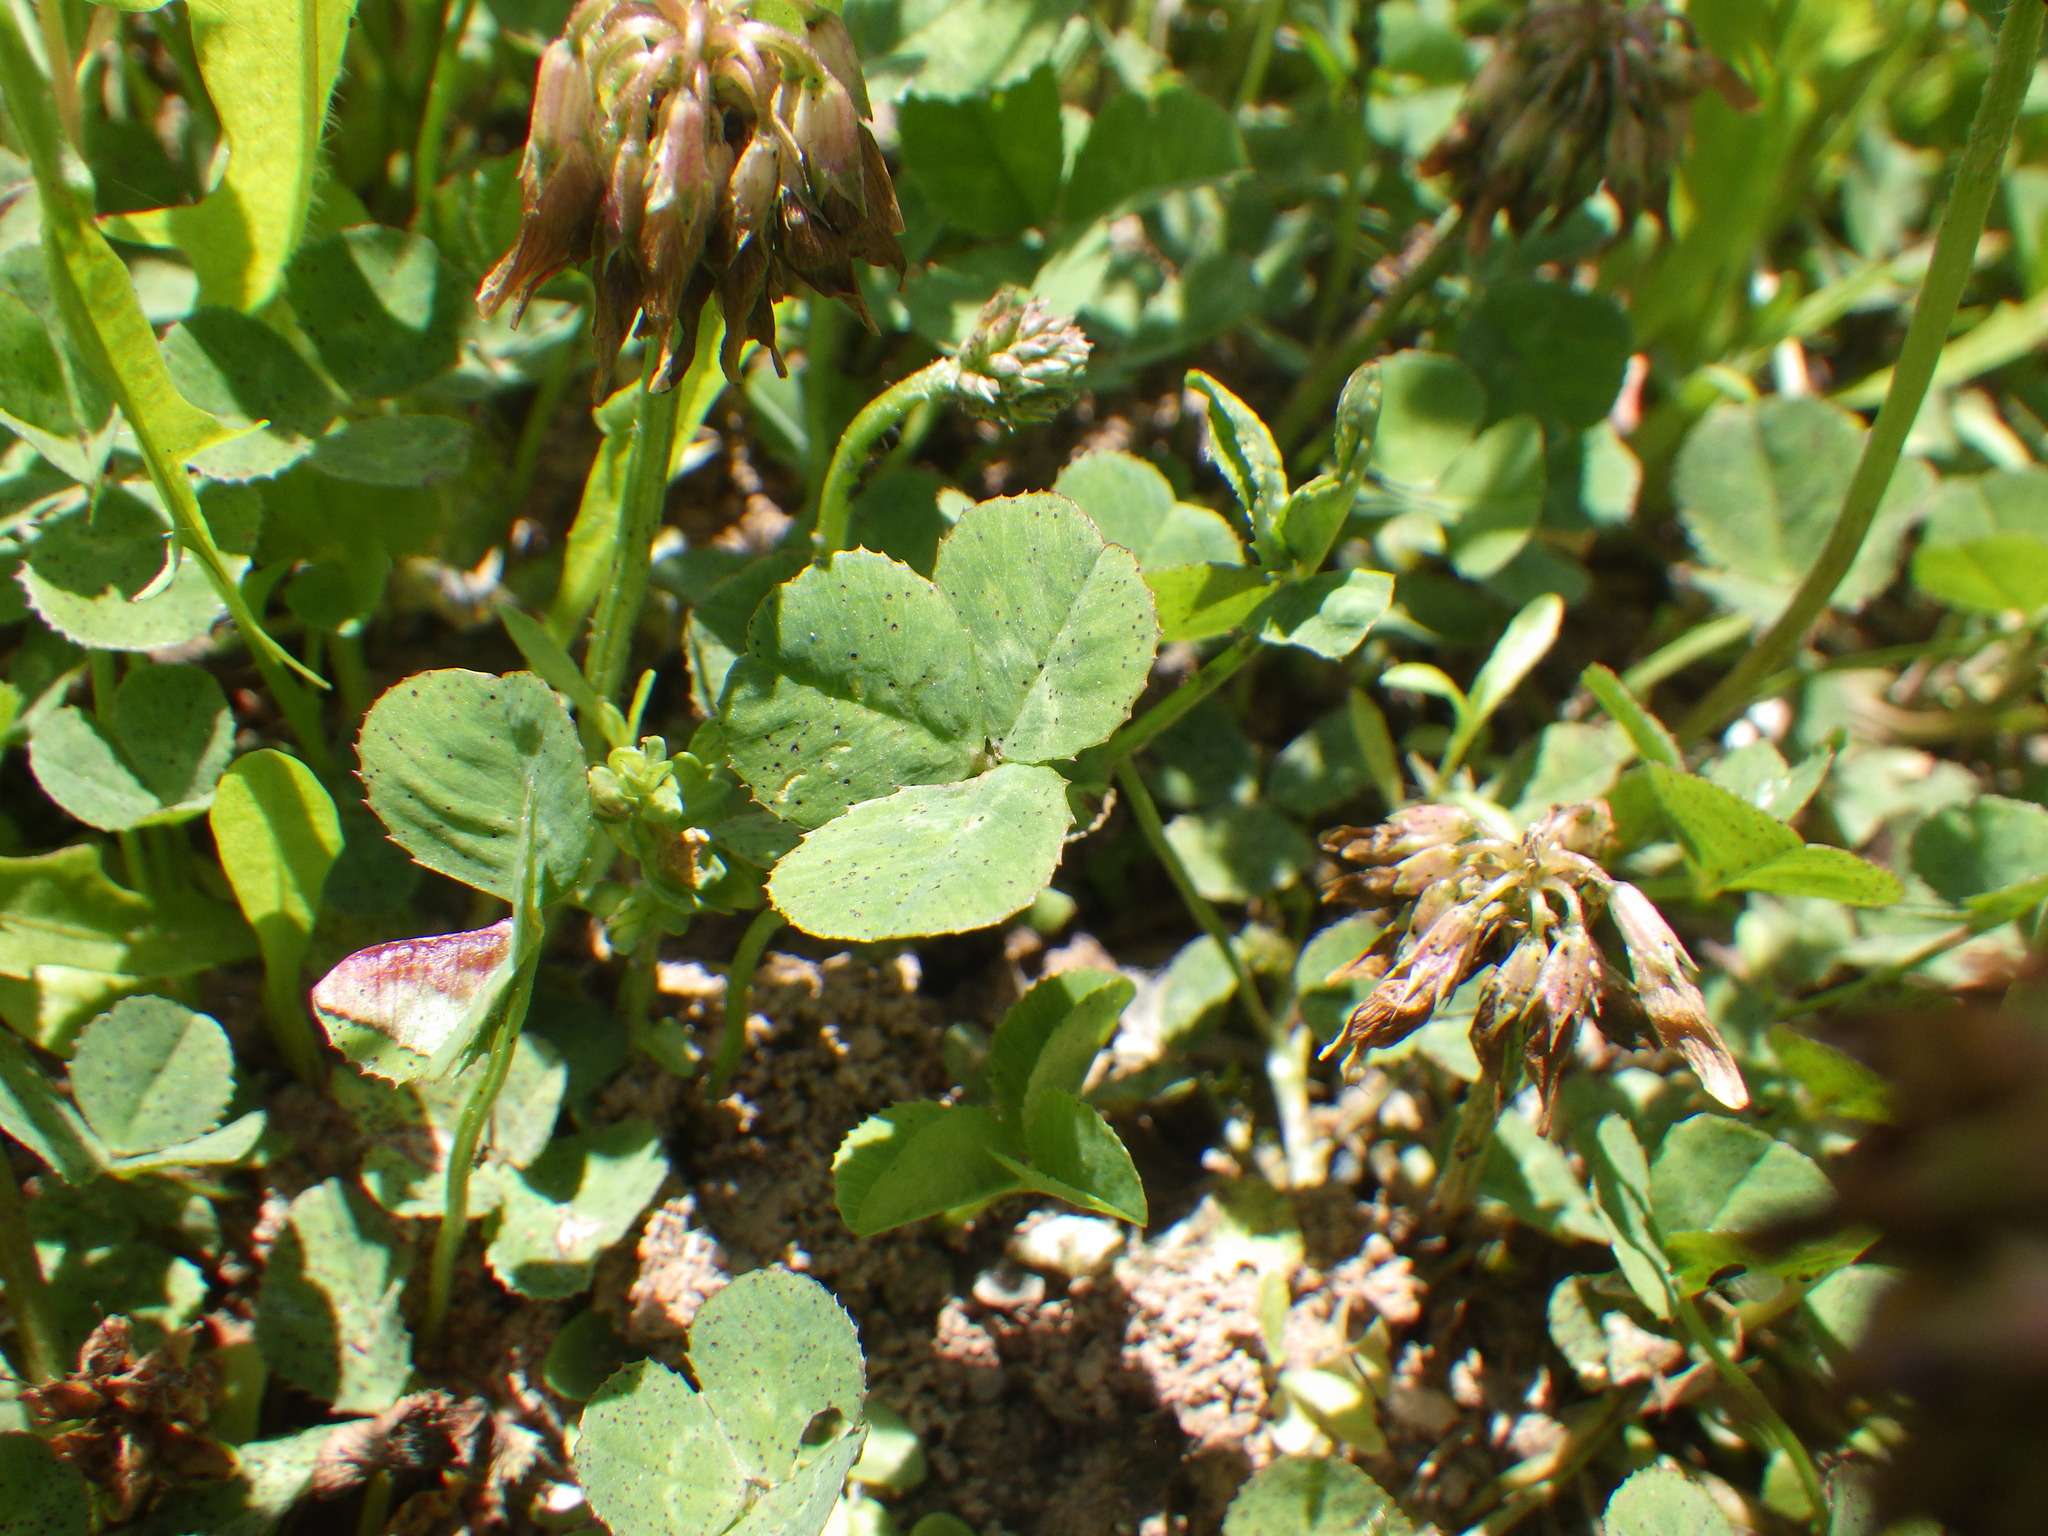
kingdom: Plantae
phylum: Tracheophyta
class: Magnoliopsida
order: Fabales
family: Fabaceae
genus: Trifolium
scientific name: Trifolium repens
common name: White clover
